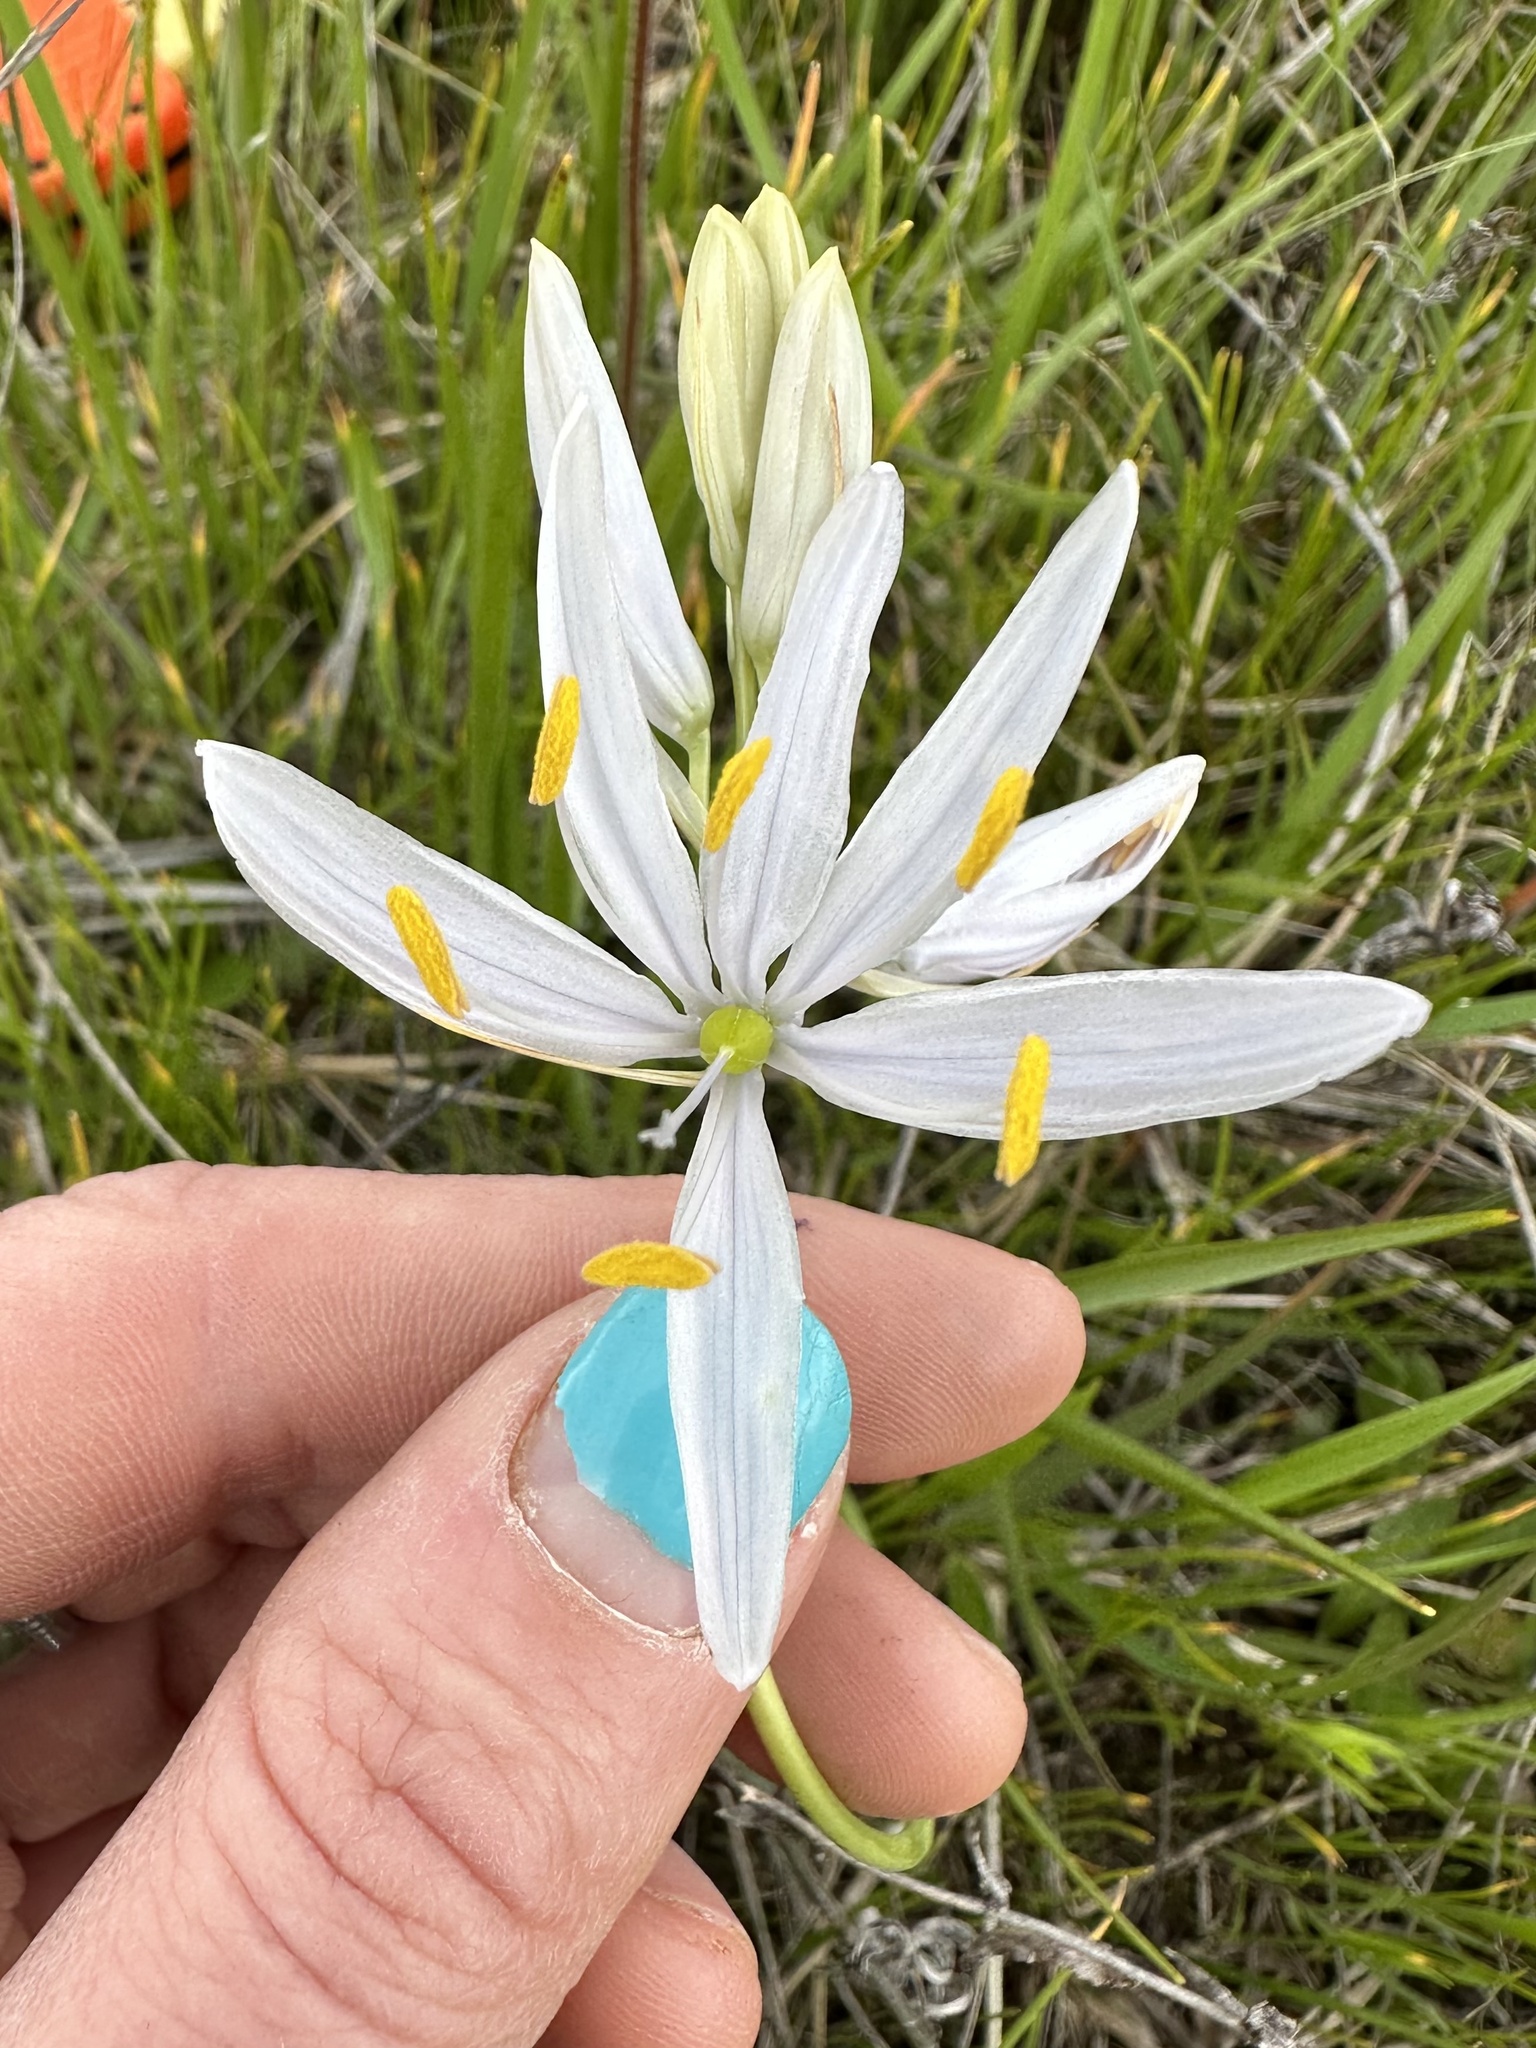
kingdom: Plantae
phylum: Tracheophyta
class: Liliopsida
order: Asparagales
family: Asparagaceae
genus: Camassia
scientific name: Camassia quamash
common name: Common camas
